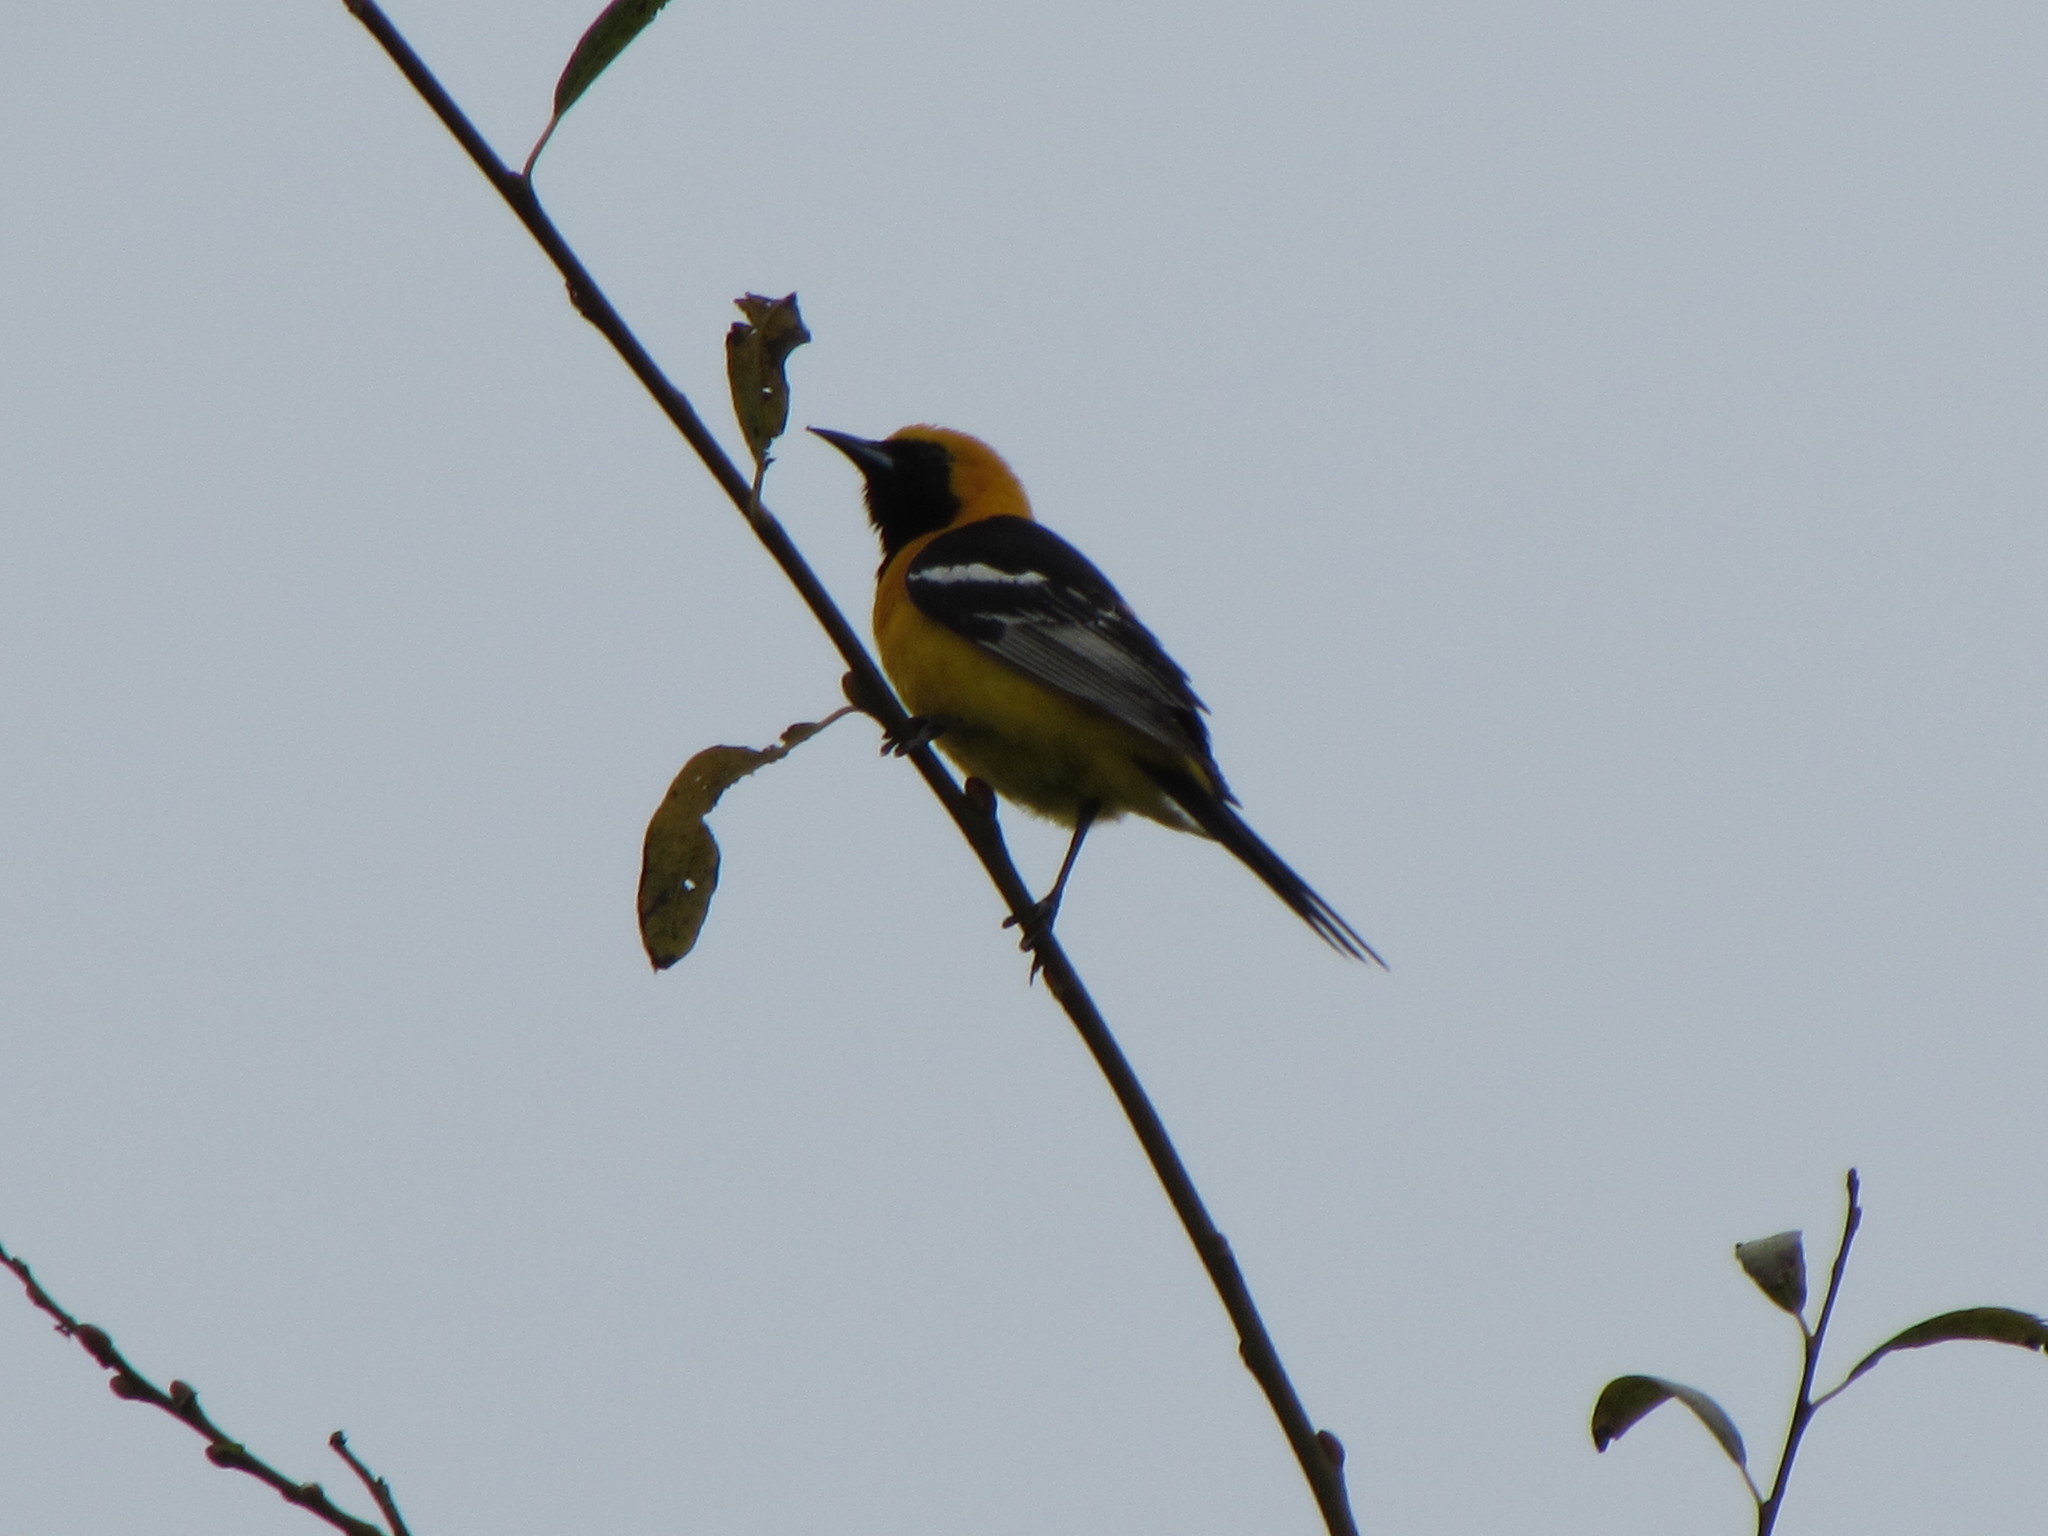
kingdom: Animalia
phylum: Chordata
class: Aves
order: Passeriformes
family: Icteridae
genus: Icterus
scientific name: Icterus cucullatus
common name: Hooded oriole
